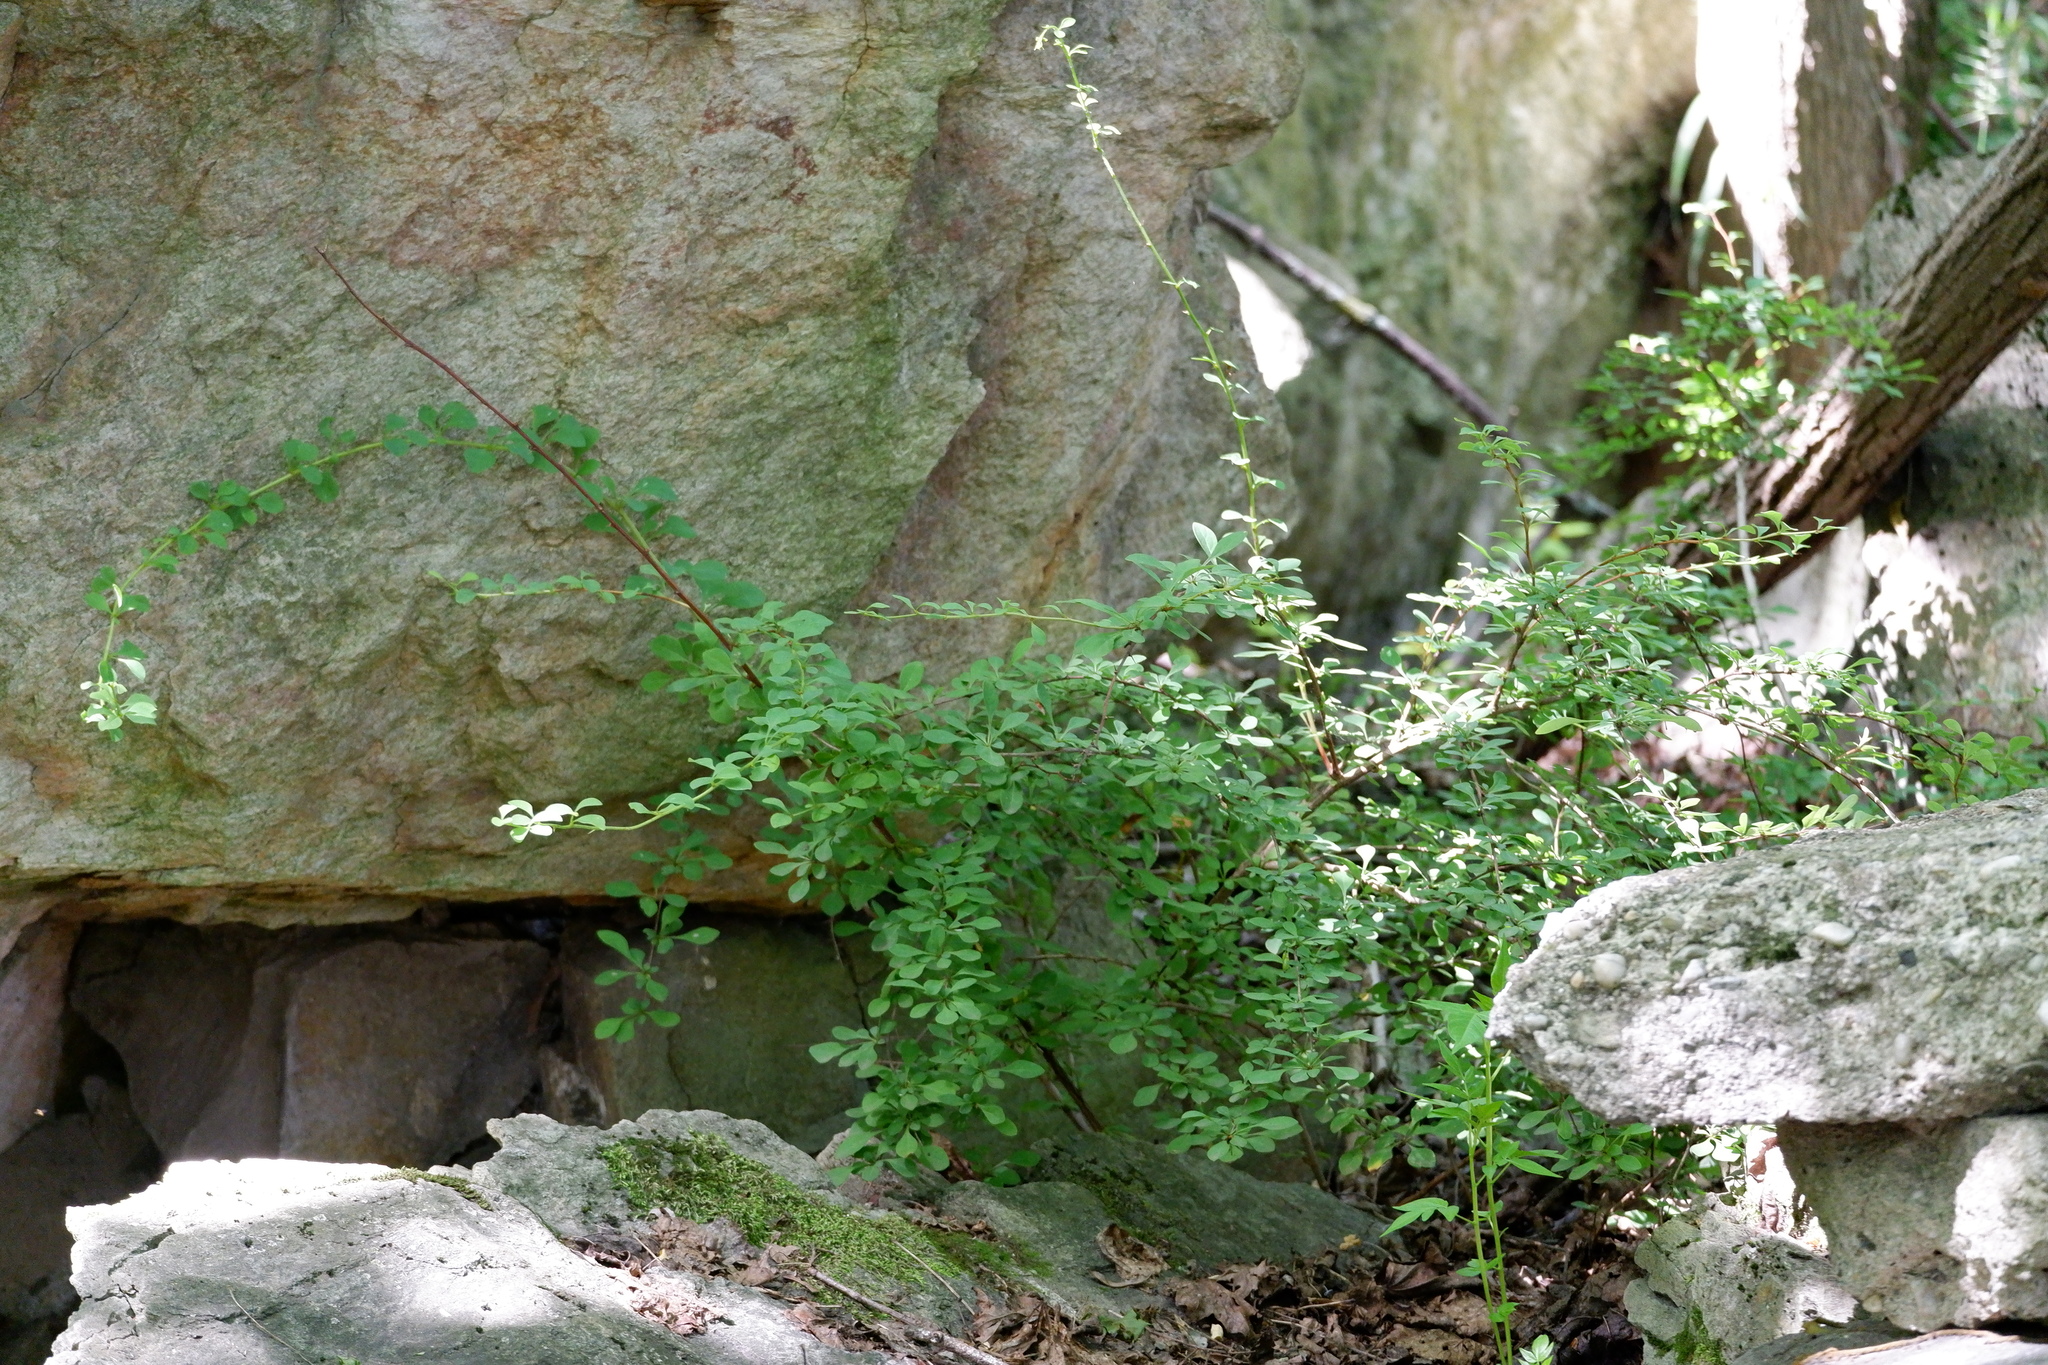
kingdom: Plantae
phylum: Tracheophyta
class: Magnoliopsida
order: Ranunculales
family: Berberidaceae
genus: Berberis
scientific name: Berberis thunbergii
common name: Japanese barberry
